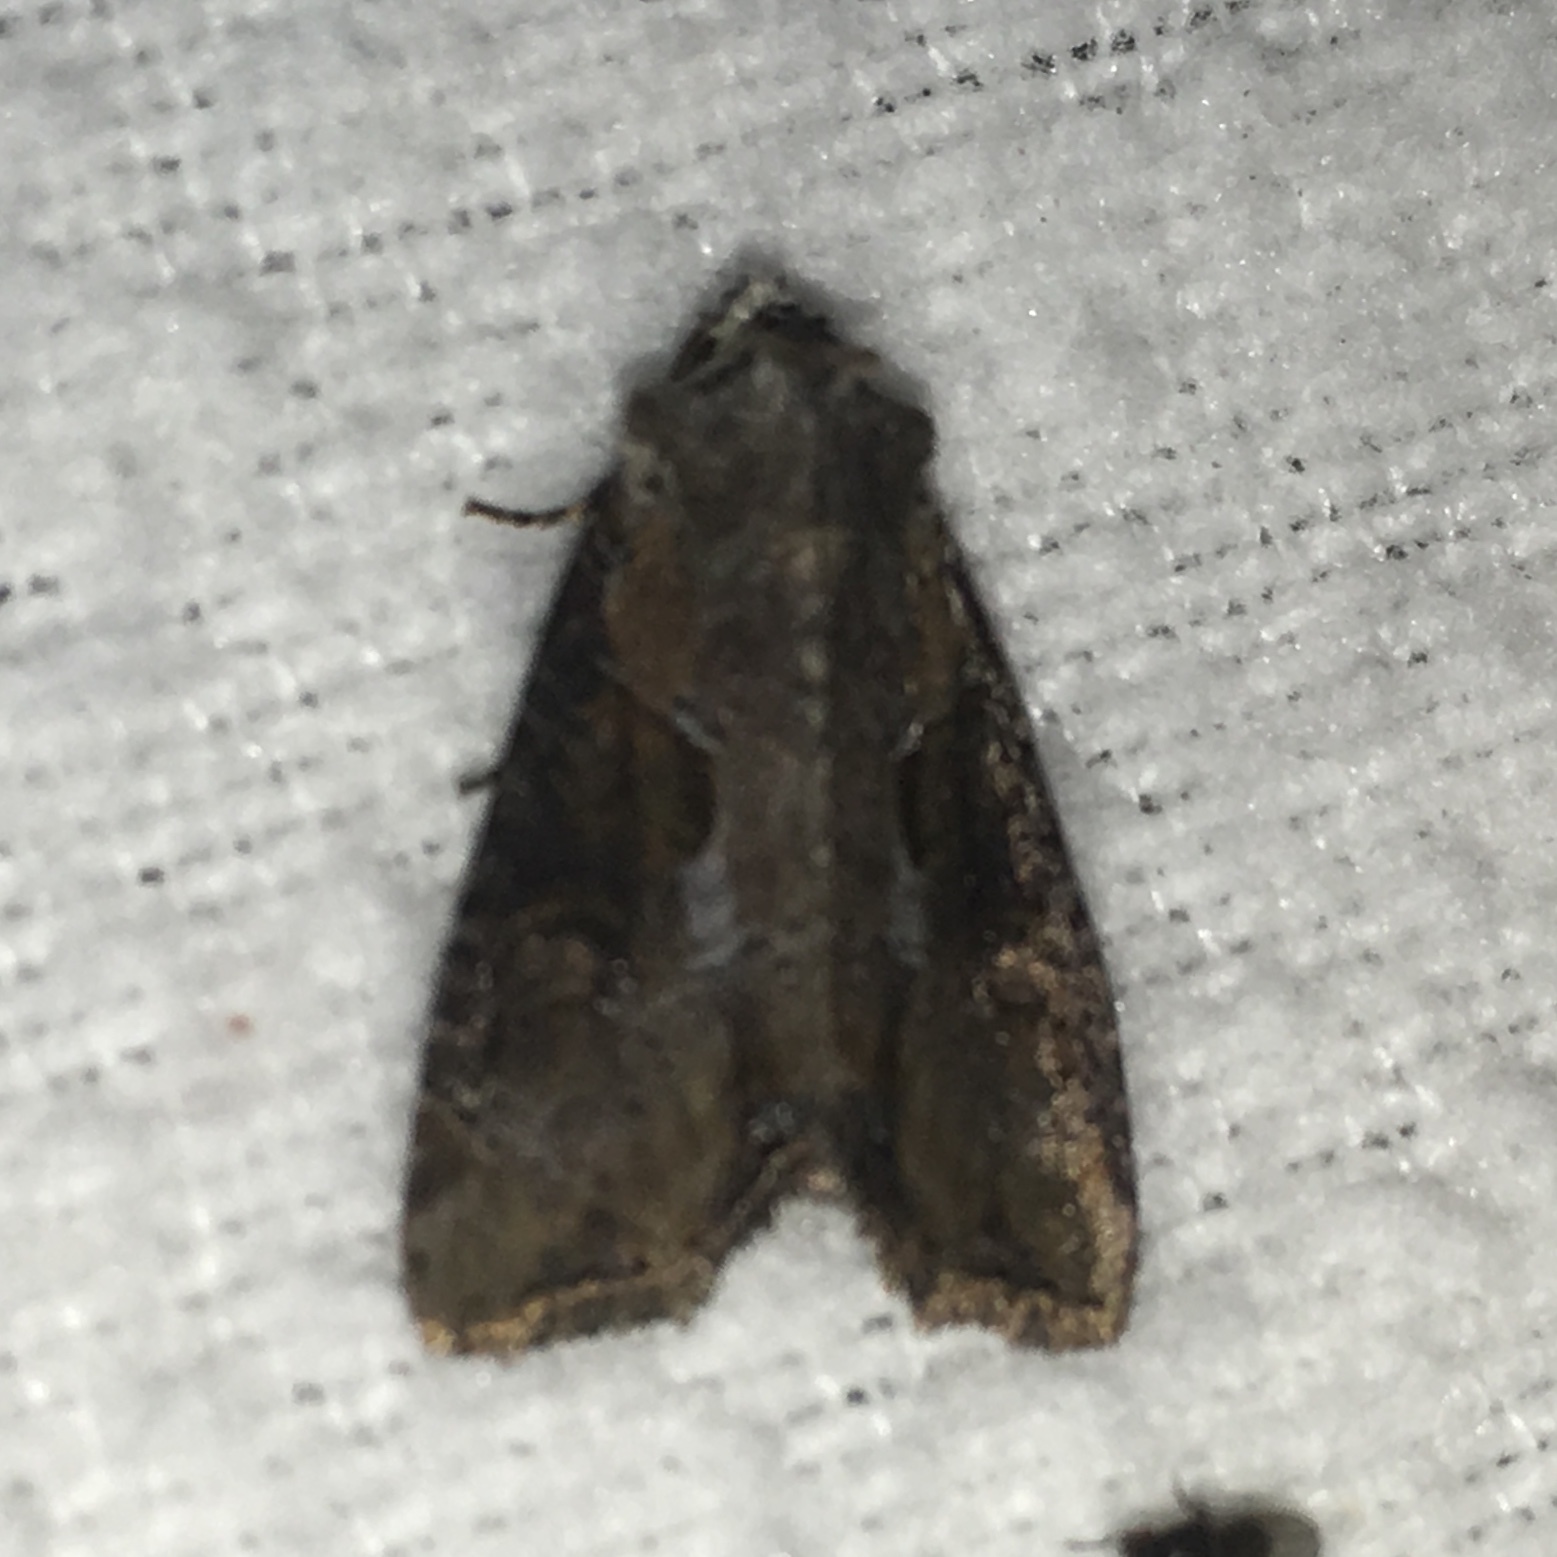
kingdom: Animalia
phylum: Arthropoda
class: Insecta
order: Lepidoptera
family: Noctuidae
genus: Lateroligia
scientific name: Lateroligia ophiogramma
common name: Double lobed
